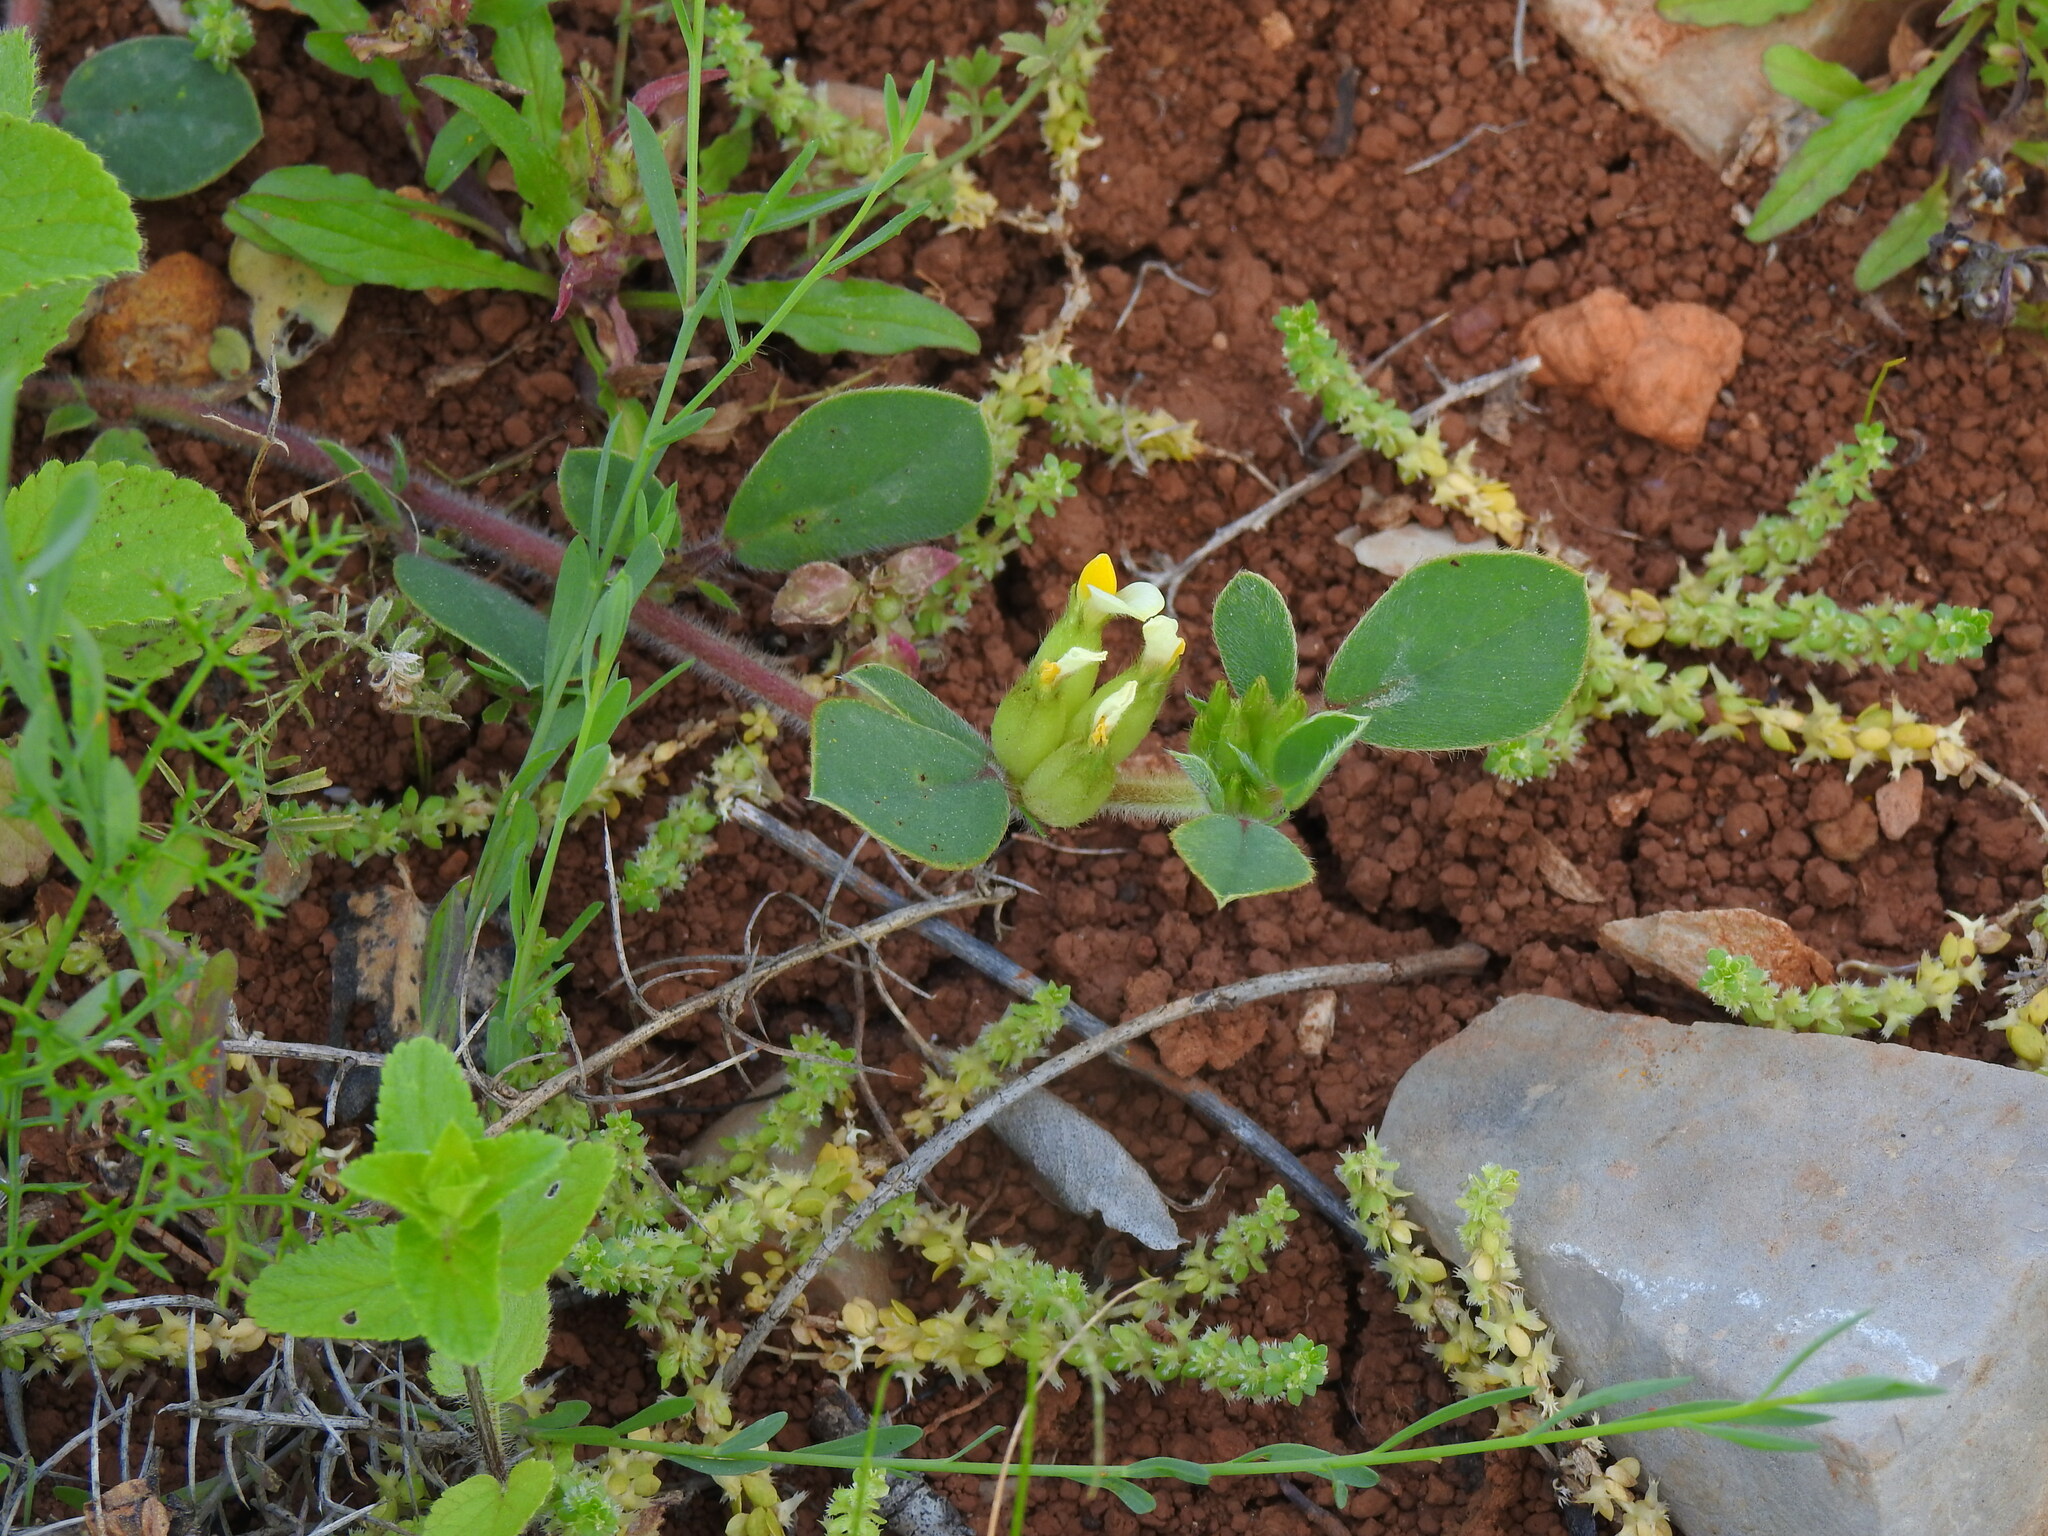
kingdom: Plantae
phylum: Tracheophyta
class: Magnoliopsida
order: Fabales
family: Fabaceae
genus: Tripodion
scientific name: Tripodion tetraphyllum
